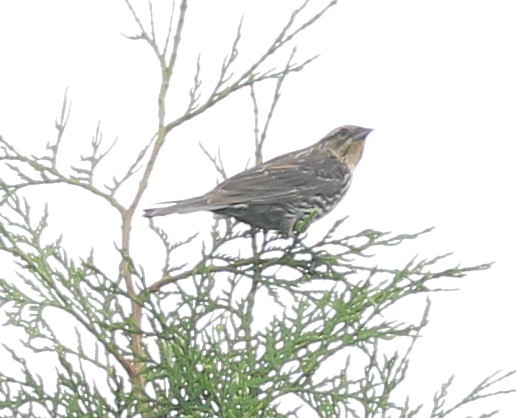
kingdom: Animalia
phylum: Chordata
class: Aves
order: Passeriformes
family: Icteridae
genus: Agelaius
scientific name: Agelaius phoeniceus
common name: Red-winged blackbird
